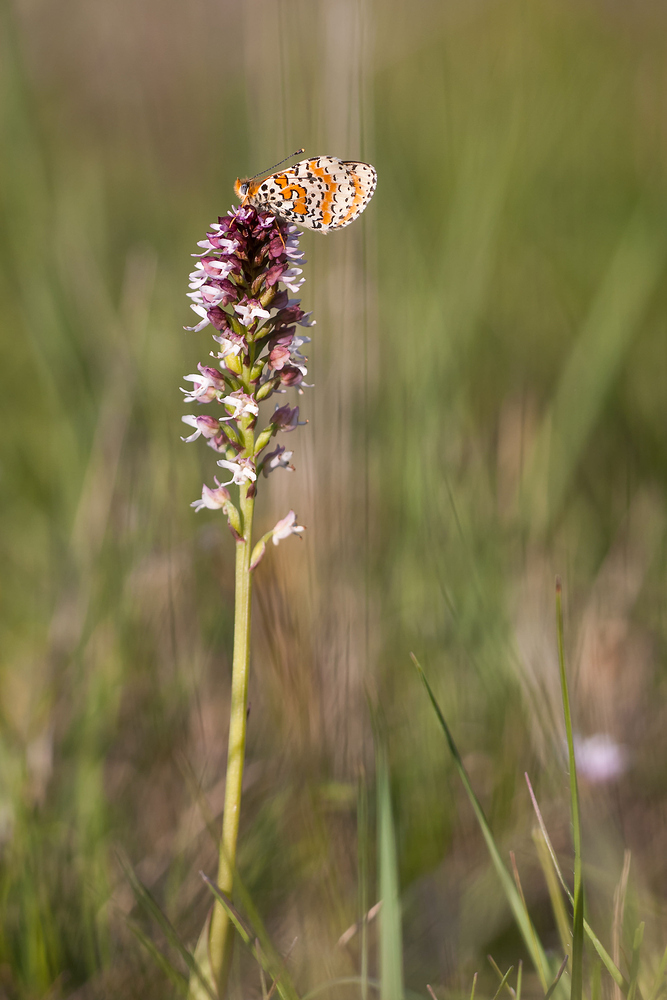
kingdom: Animalia
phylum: Arthropoda
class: Insecta
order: Lepidoptera
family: Nymphalidae
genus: Melitaea
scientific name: Melitaea didyma
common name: Spotted fritillary
